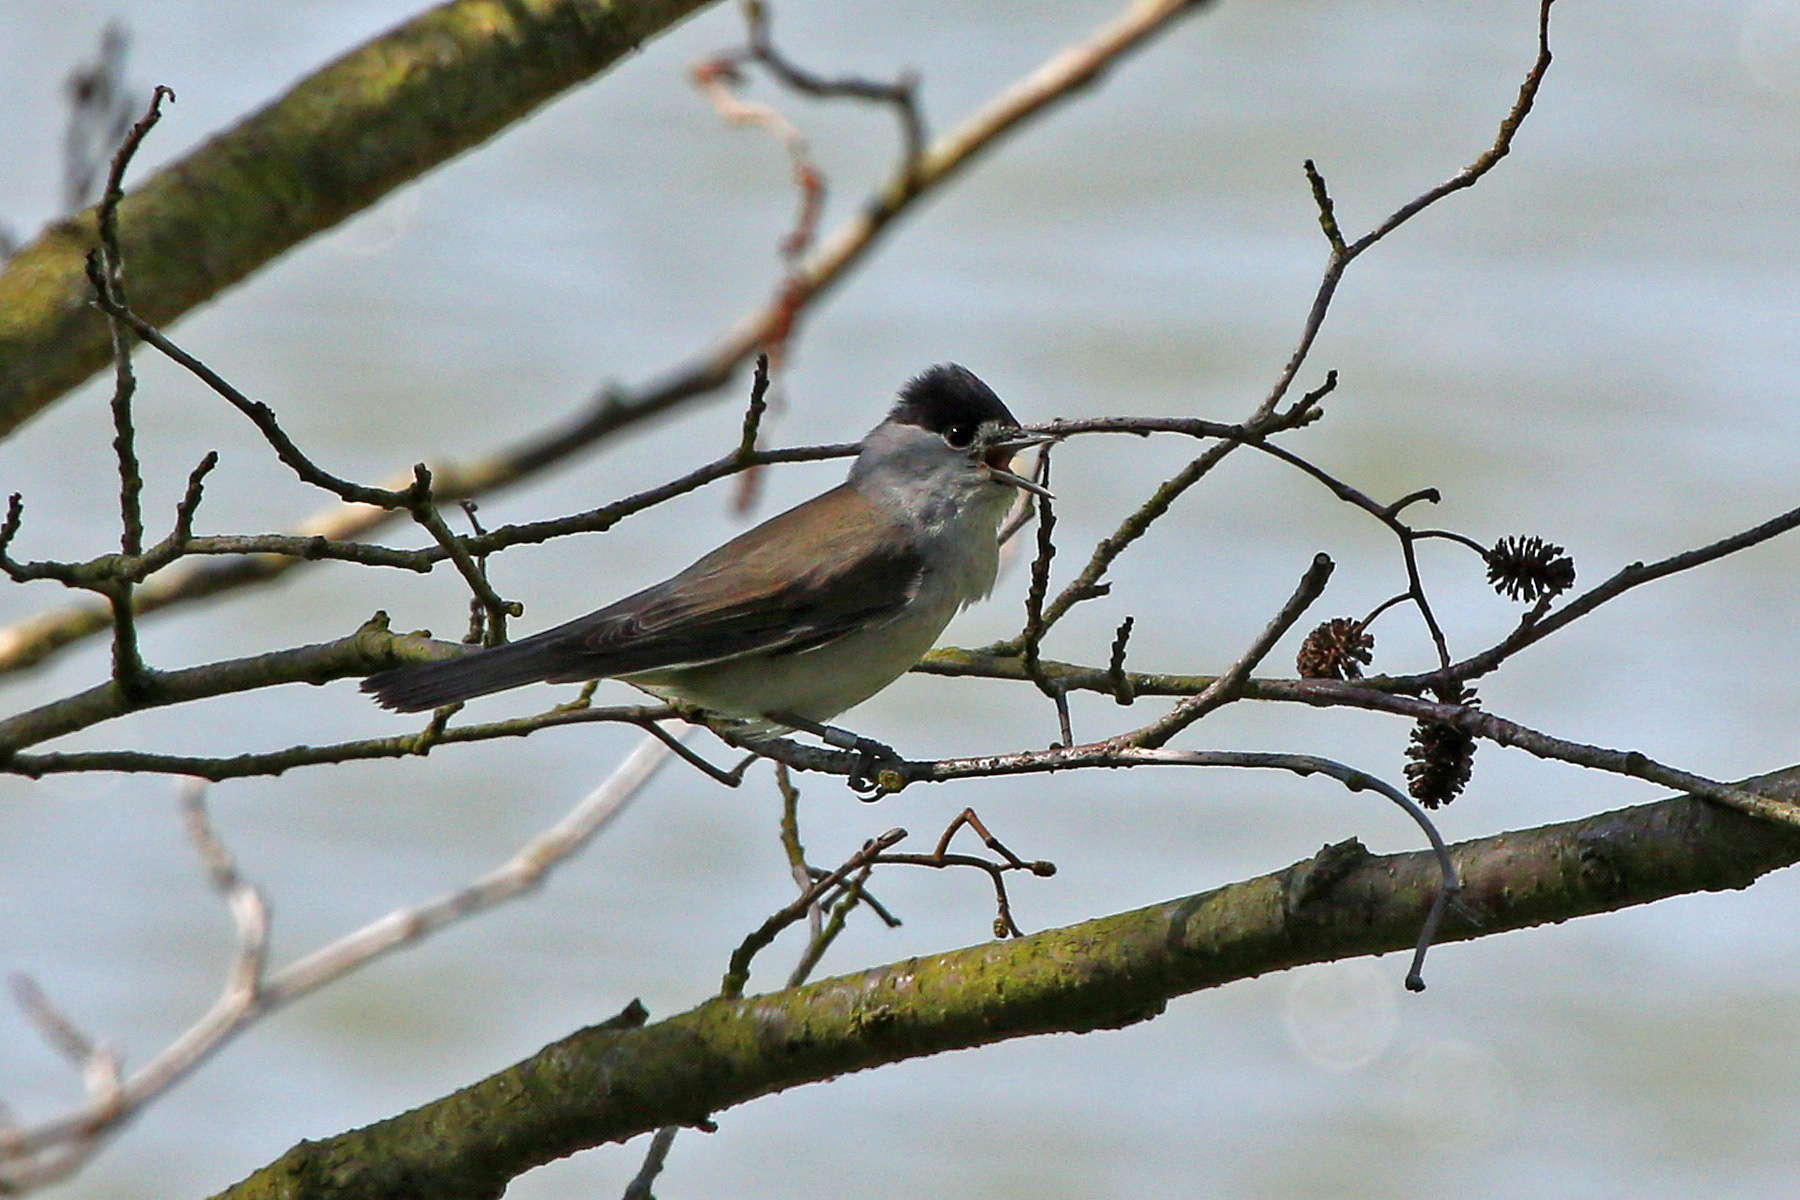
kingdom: Animalia
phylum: Chordata
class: Aves
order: Passeriformes
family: Sylviidae
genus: Sylvia
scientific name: Sylvia atricapilla
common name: Eurasian blackcap
